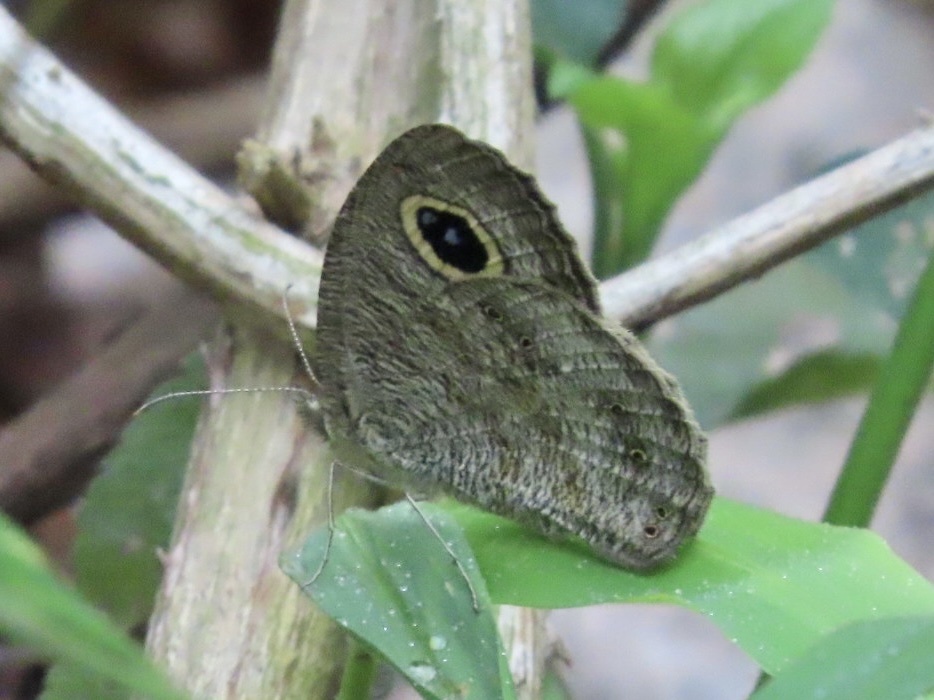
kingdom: Animalia
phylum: Arthropoda
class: Insecta
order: Lepidoptera
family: Nymphalidae
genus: Ypthima
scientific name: Ypthima baldus
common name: Common five-ring
